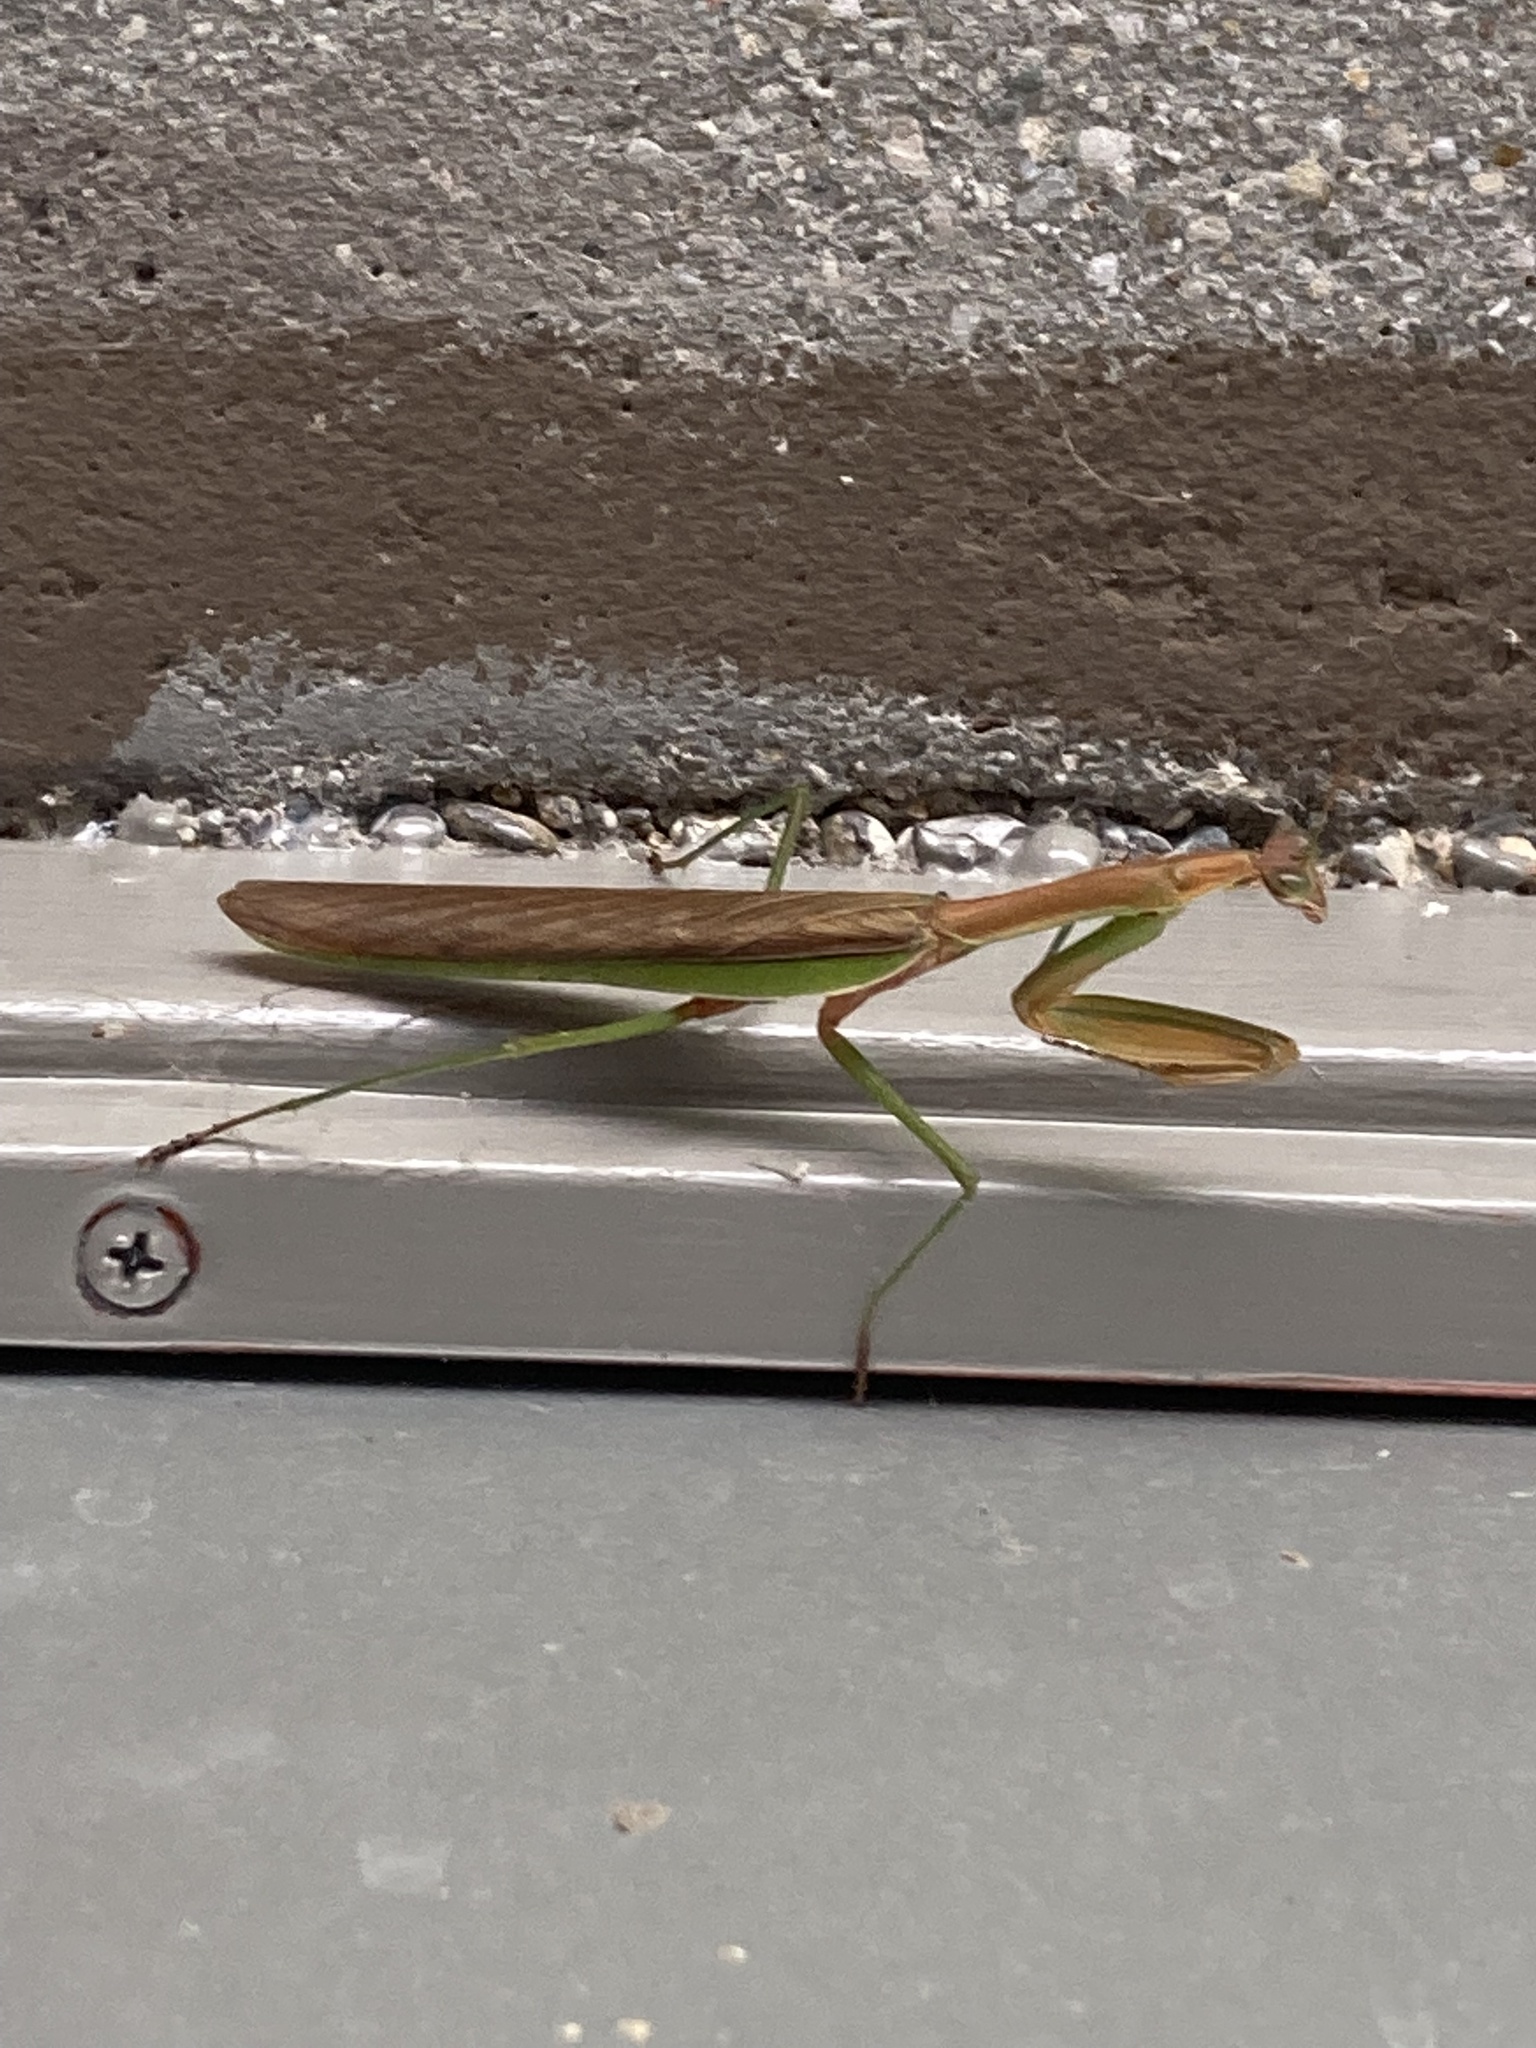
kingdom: Animalia
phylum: Arthropoda
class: Insecta
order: Mantodea
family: Mantidae
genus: Tenodera
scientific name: Tenodera sinensis
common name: Chinese mantis
